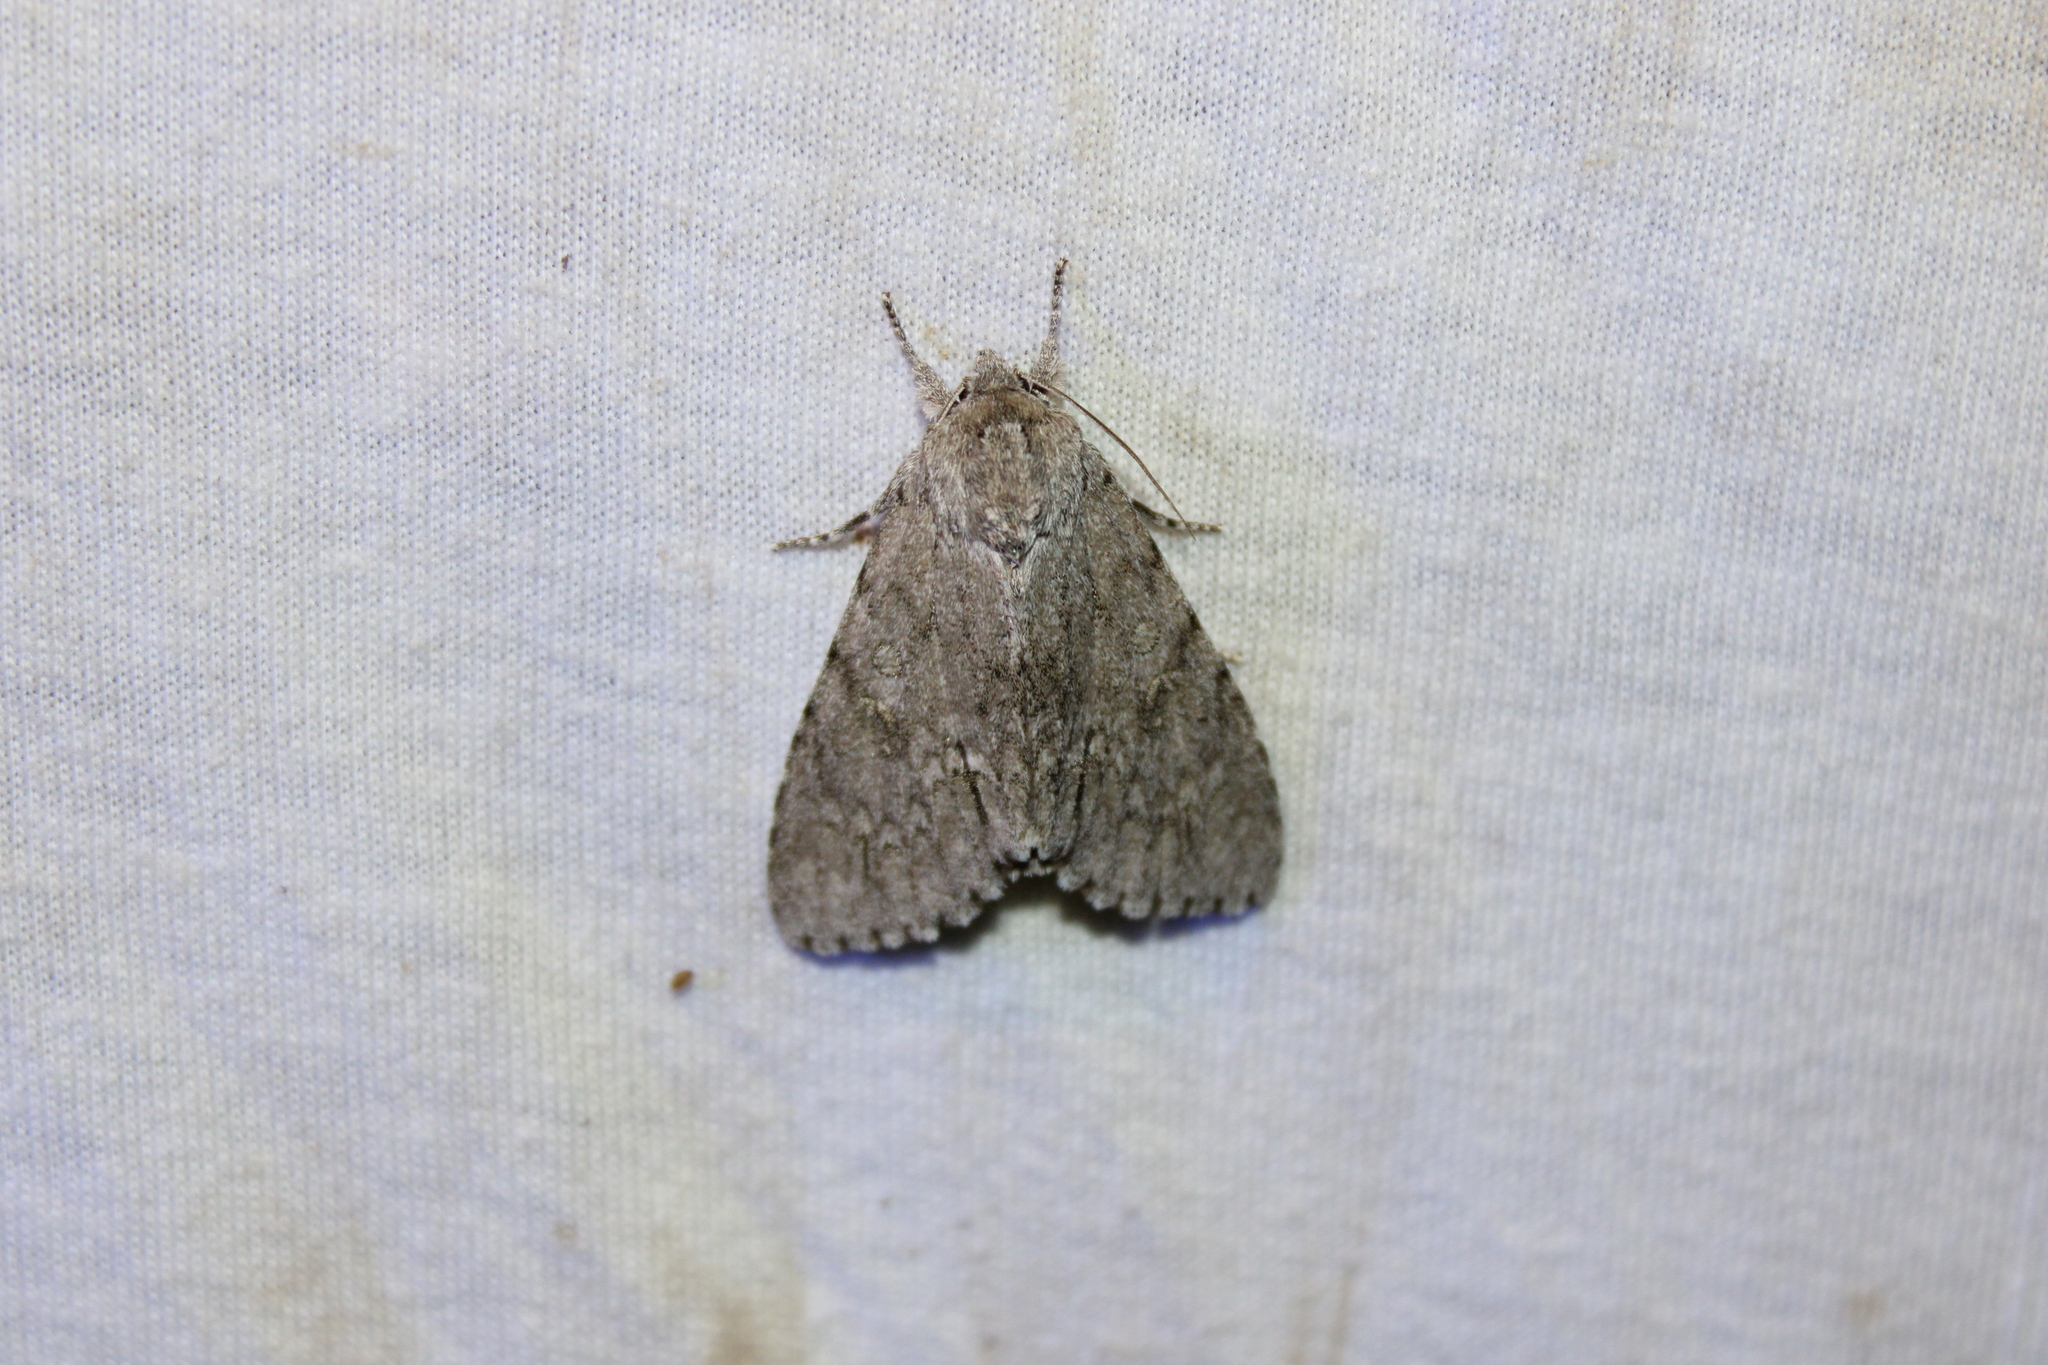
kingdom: Animalia
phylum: Arthropoda
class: Insecta
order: Lepidoptera
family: Noctuidae
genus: Acronicta
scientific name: Acronicta americana
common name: American dagger
